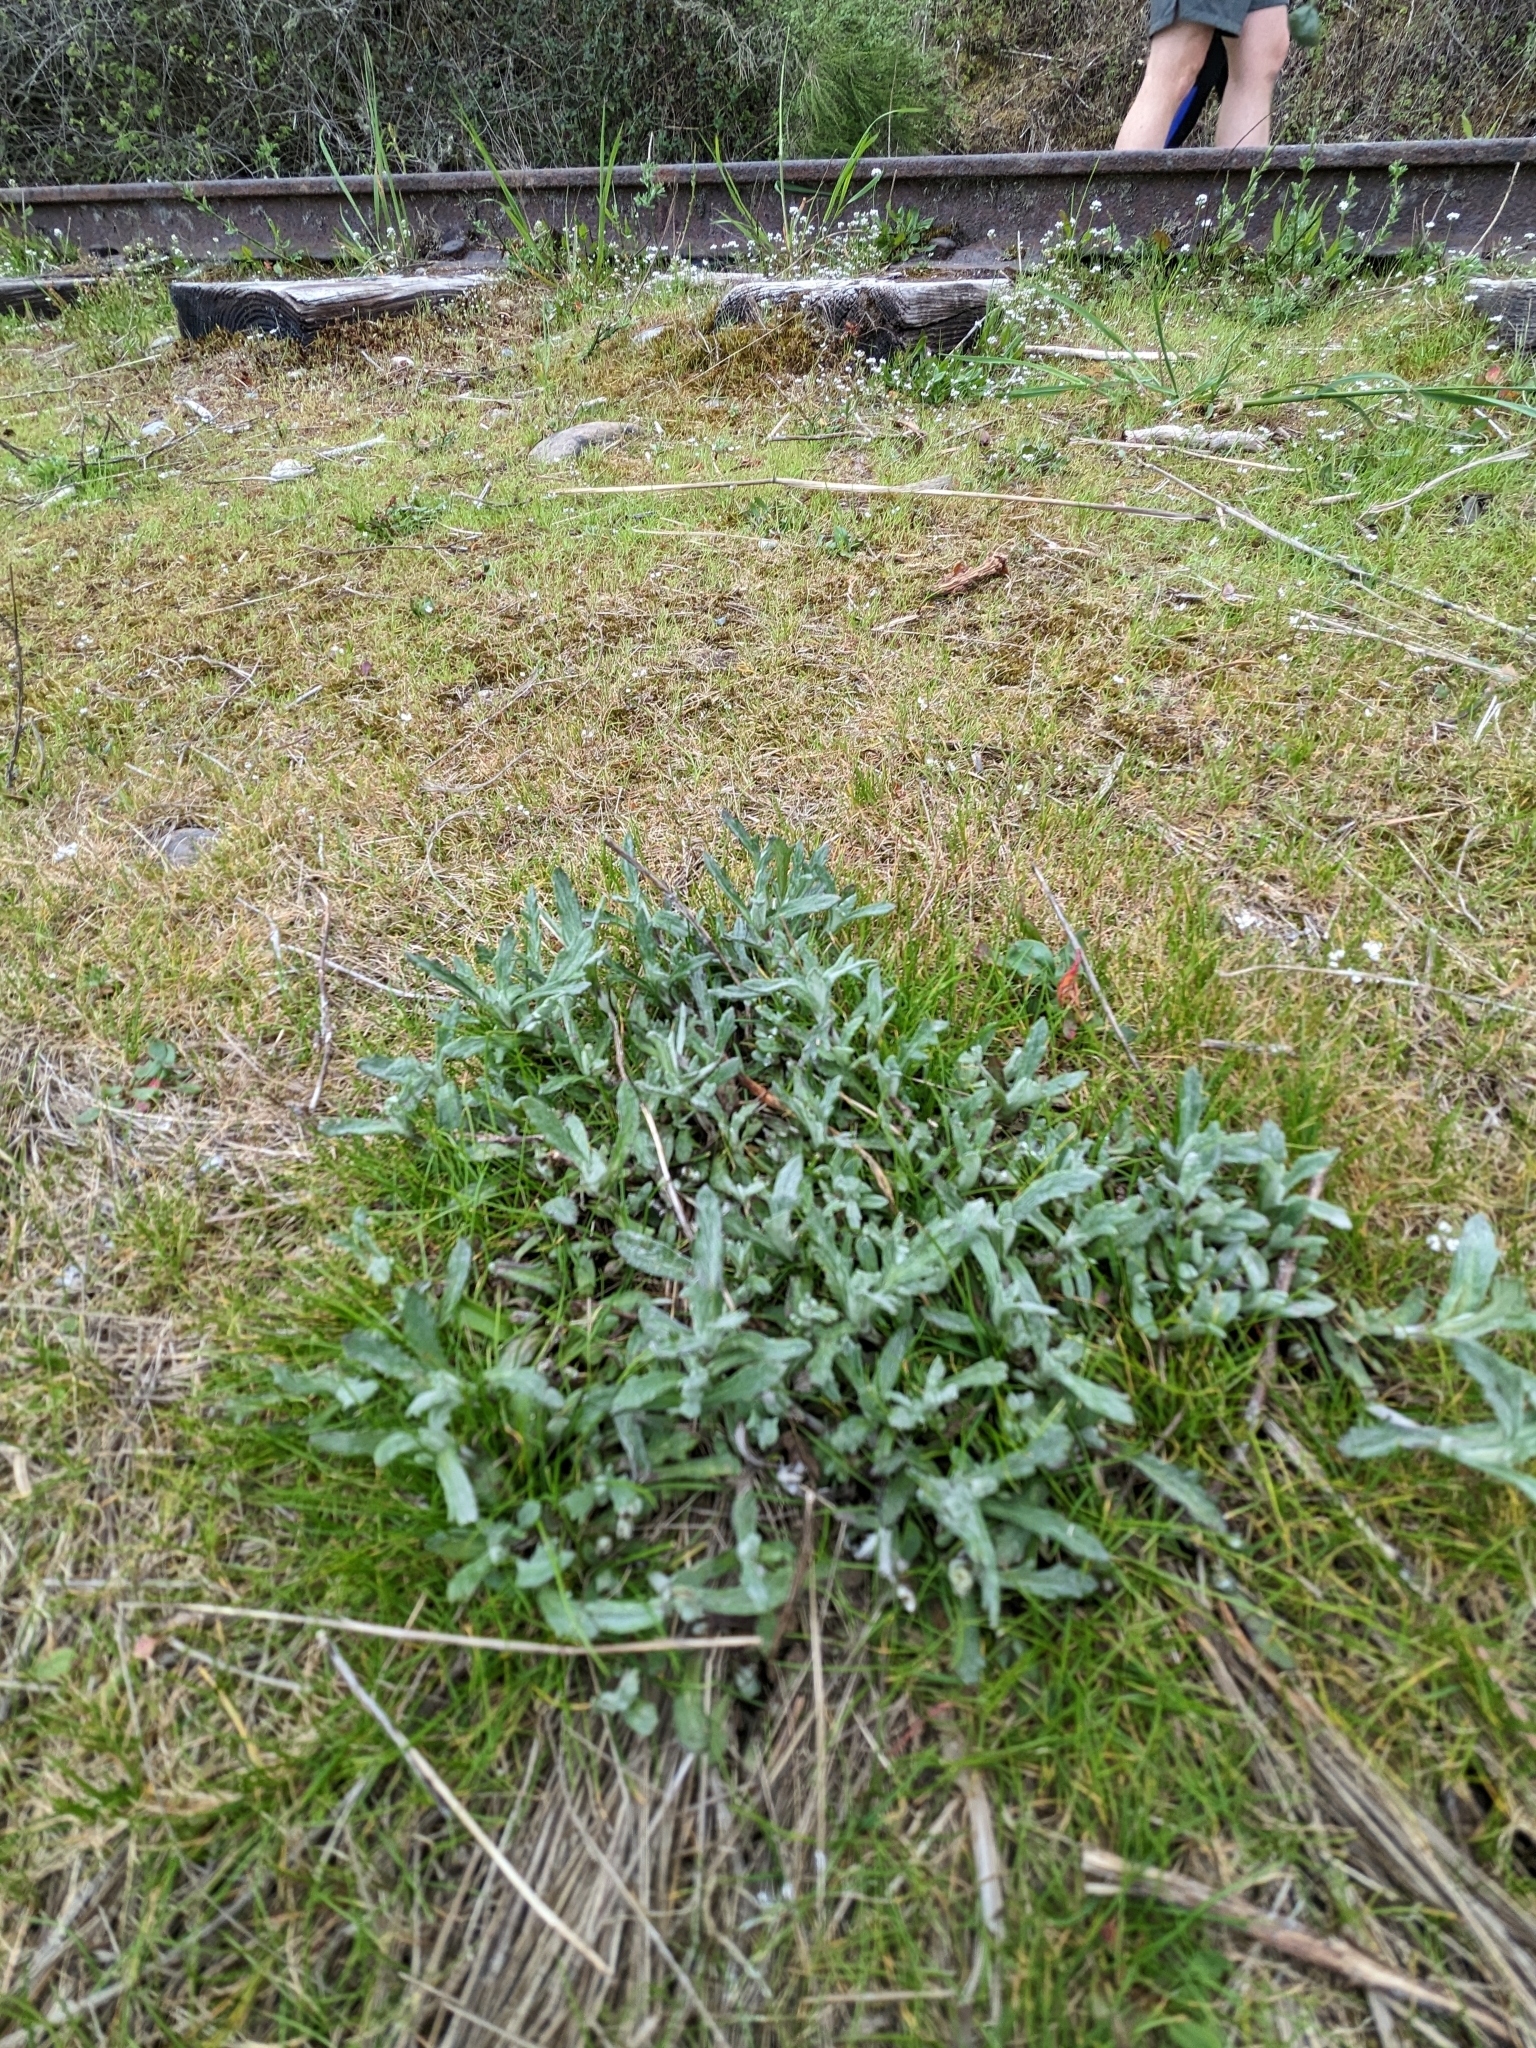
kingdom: Plantae
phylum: Tracheophyta
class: Magnoliopsida
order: Asterales
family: Asteraceae
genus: Eriophyllum
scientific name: Eriophyllum lanatum
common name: Common woolly-sunflower
